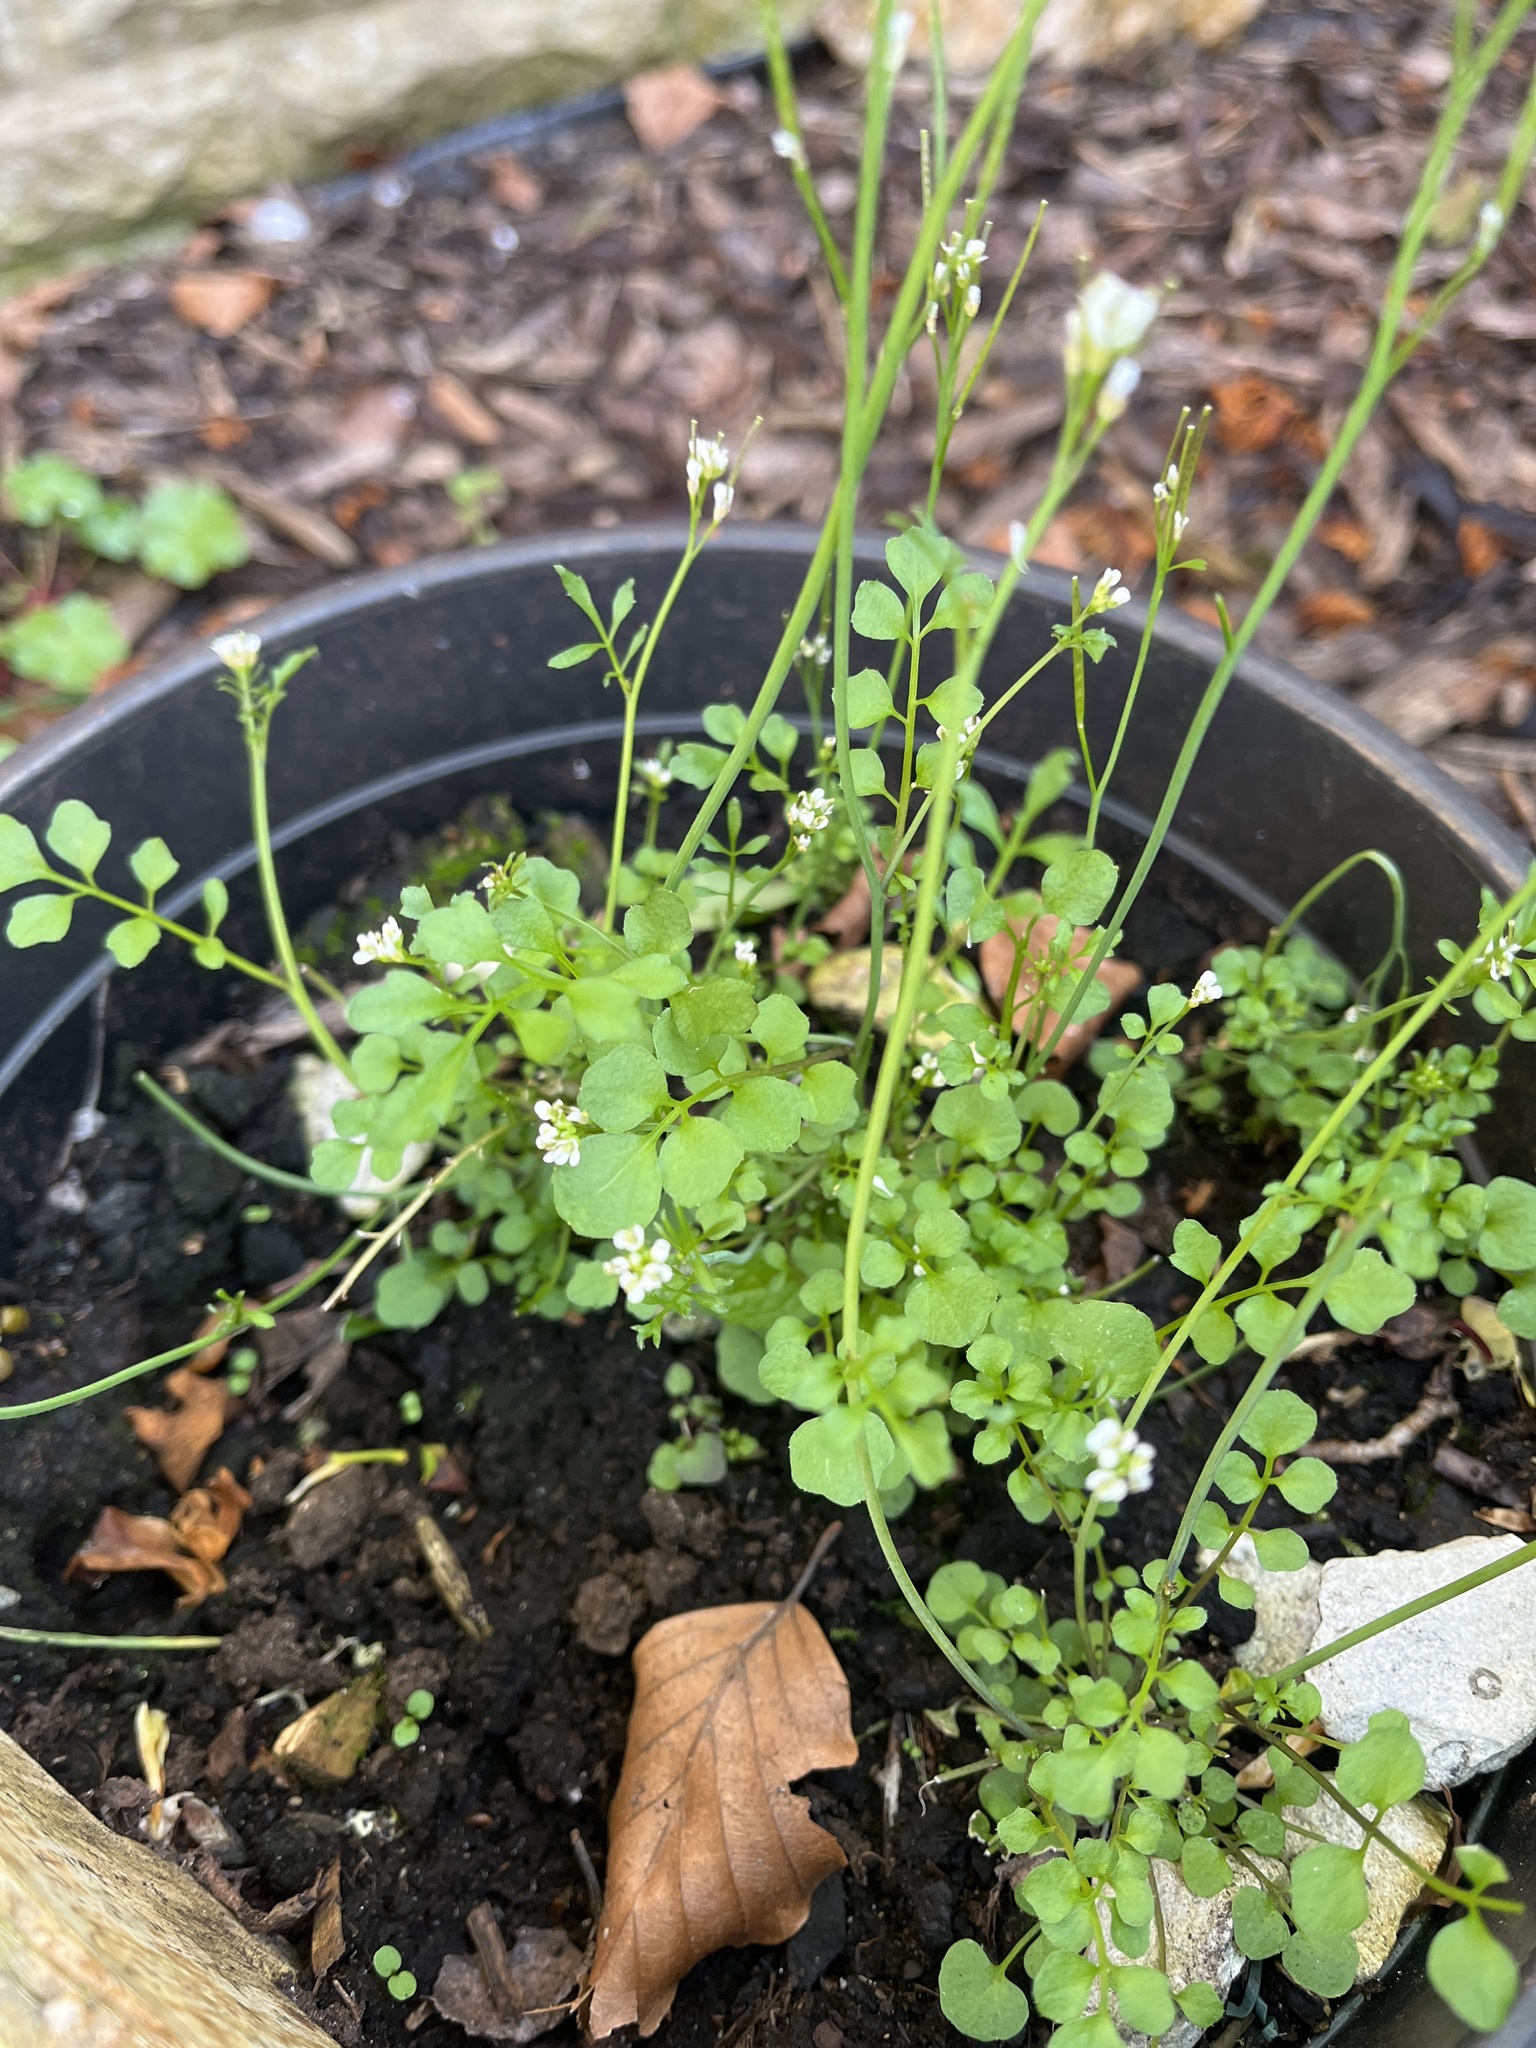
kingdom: Plantae
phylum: Tracheophyta
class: Magnoliopsida
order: Brassicales
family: Brassicaceae
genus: Cardamine
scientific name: Cardamine hirsuta
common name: Hairy bittercress
